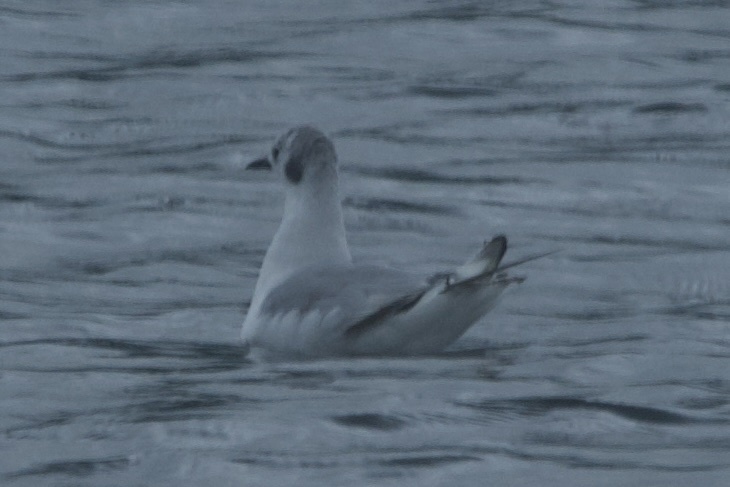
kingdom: Animalia
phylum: Chordata
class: Aves
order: Charadriiformes
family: Laridae
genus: Chroicocephalus
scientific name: Chroicocephalus philadelphia
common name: Bonaparte's gull
